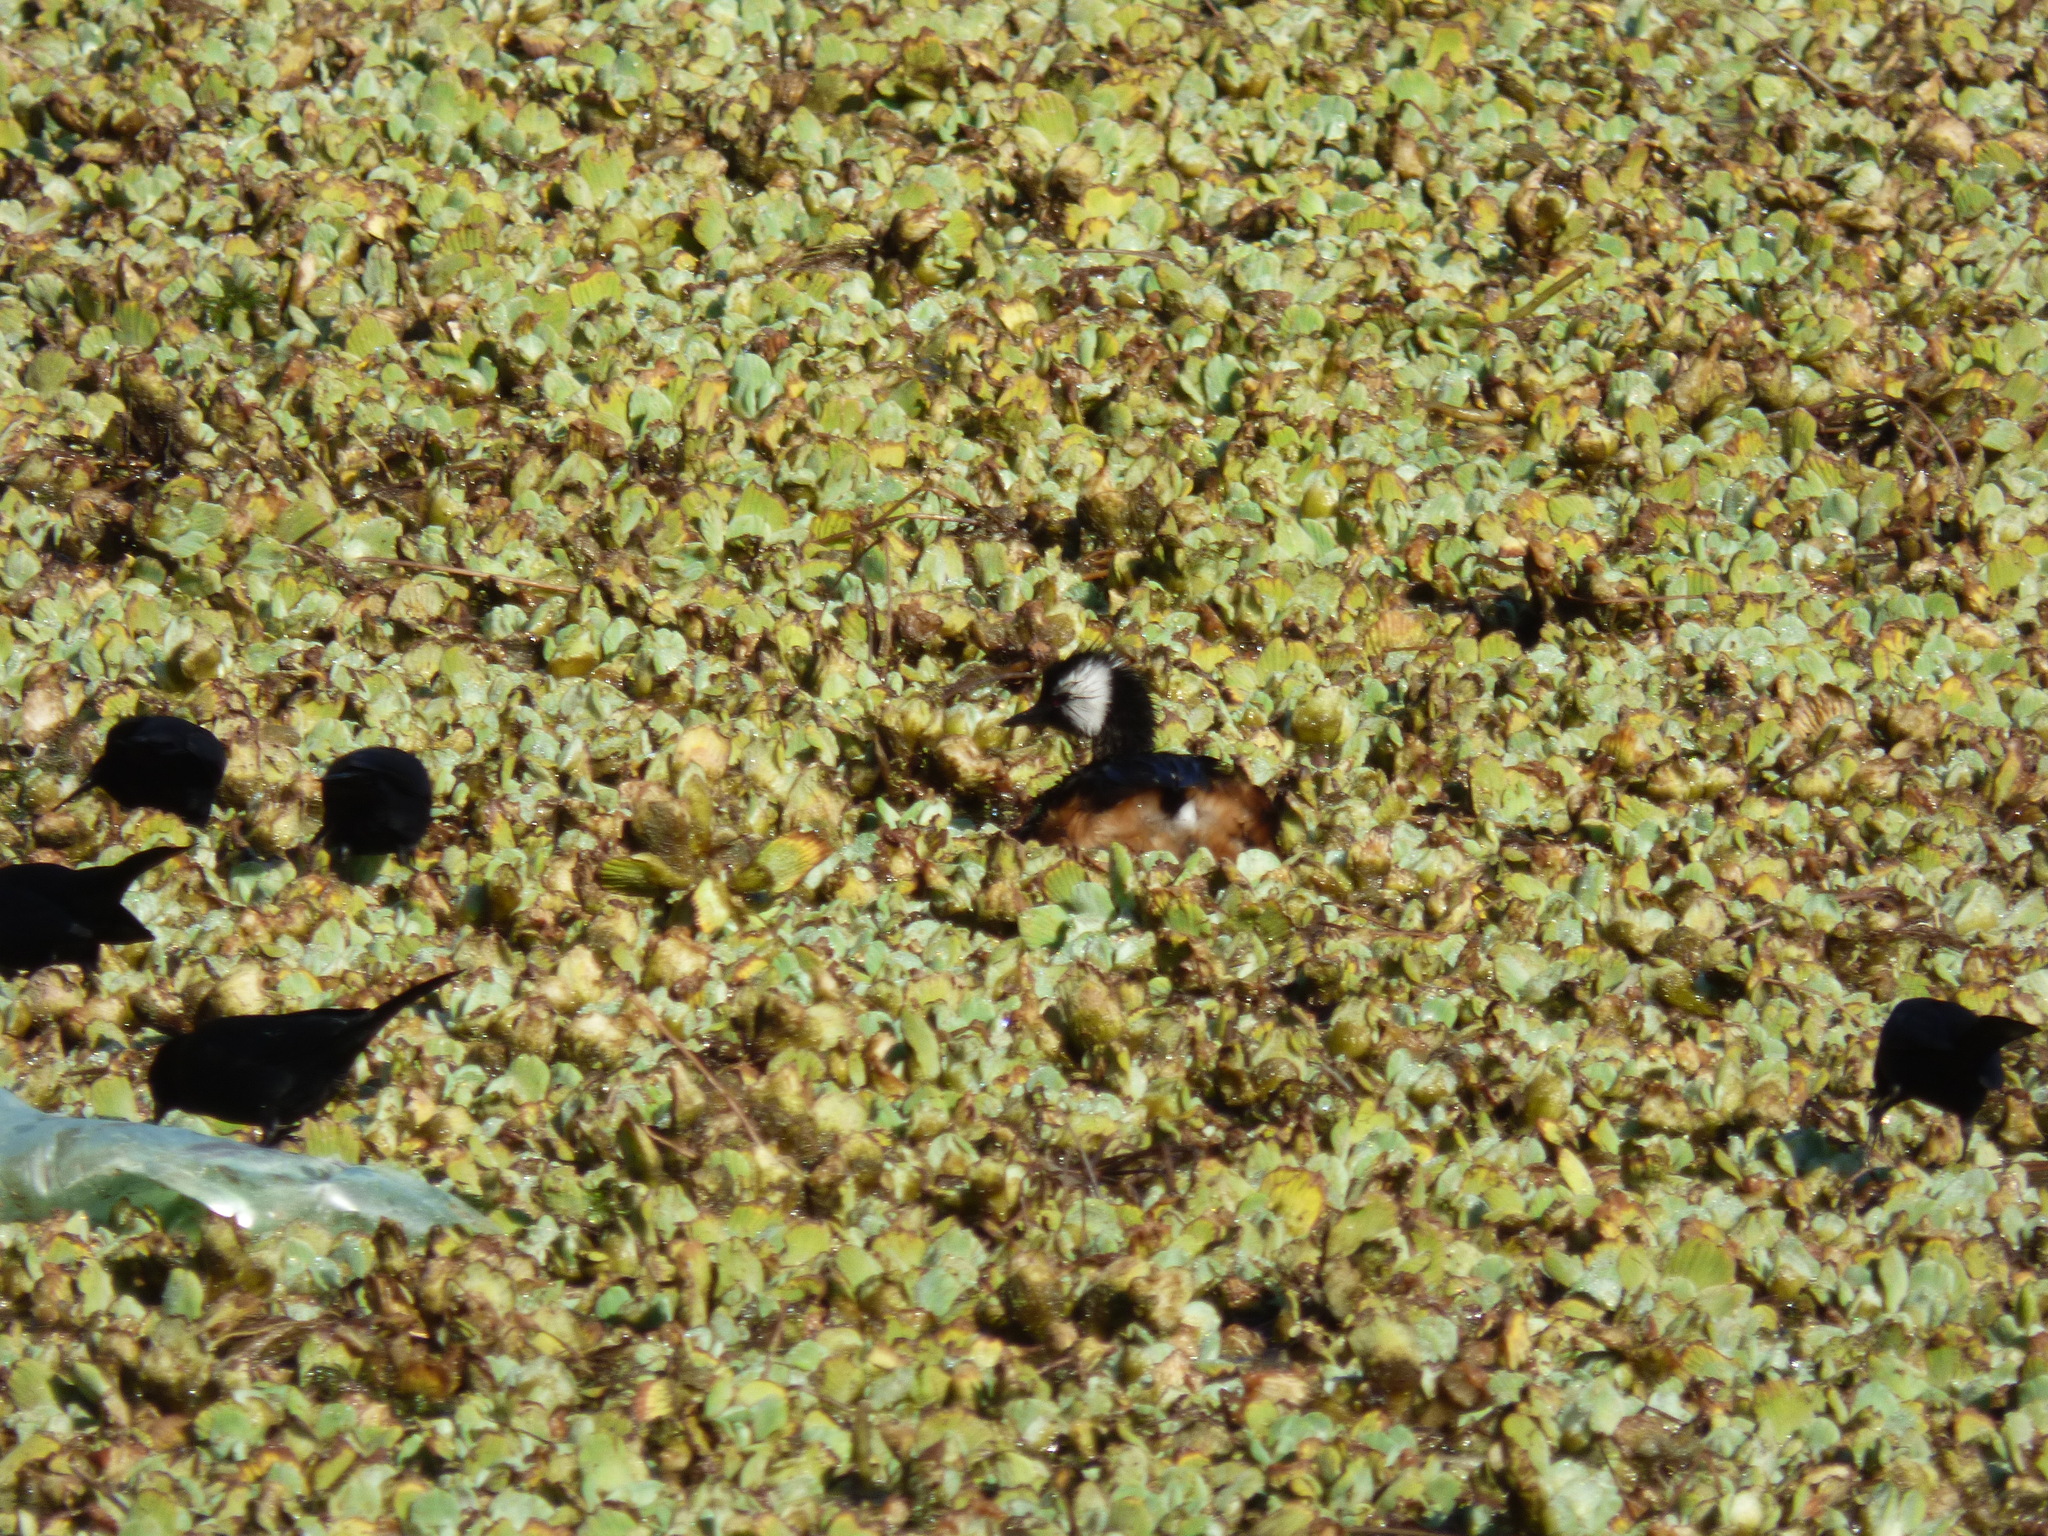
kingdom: Animalia
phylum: Chordata
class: Aves
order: Podicipediformes
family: Podicipedidae
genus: Rollandia
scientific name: Rollandia rolland
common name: White-tufted grebe
